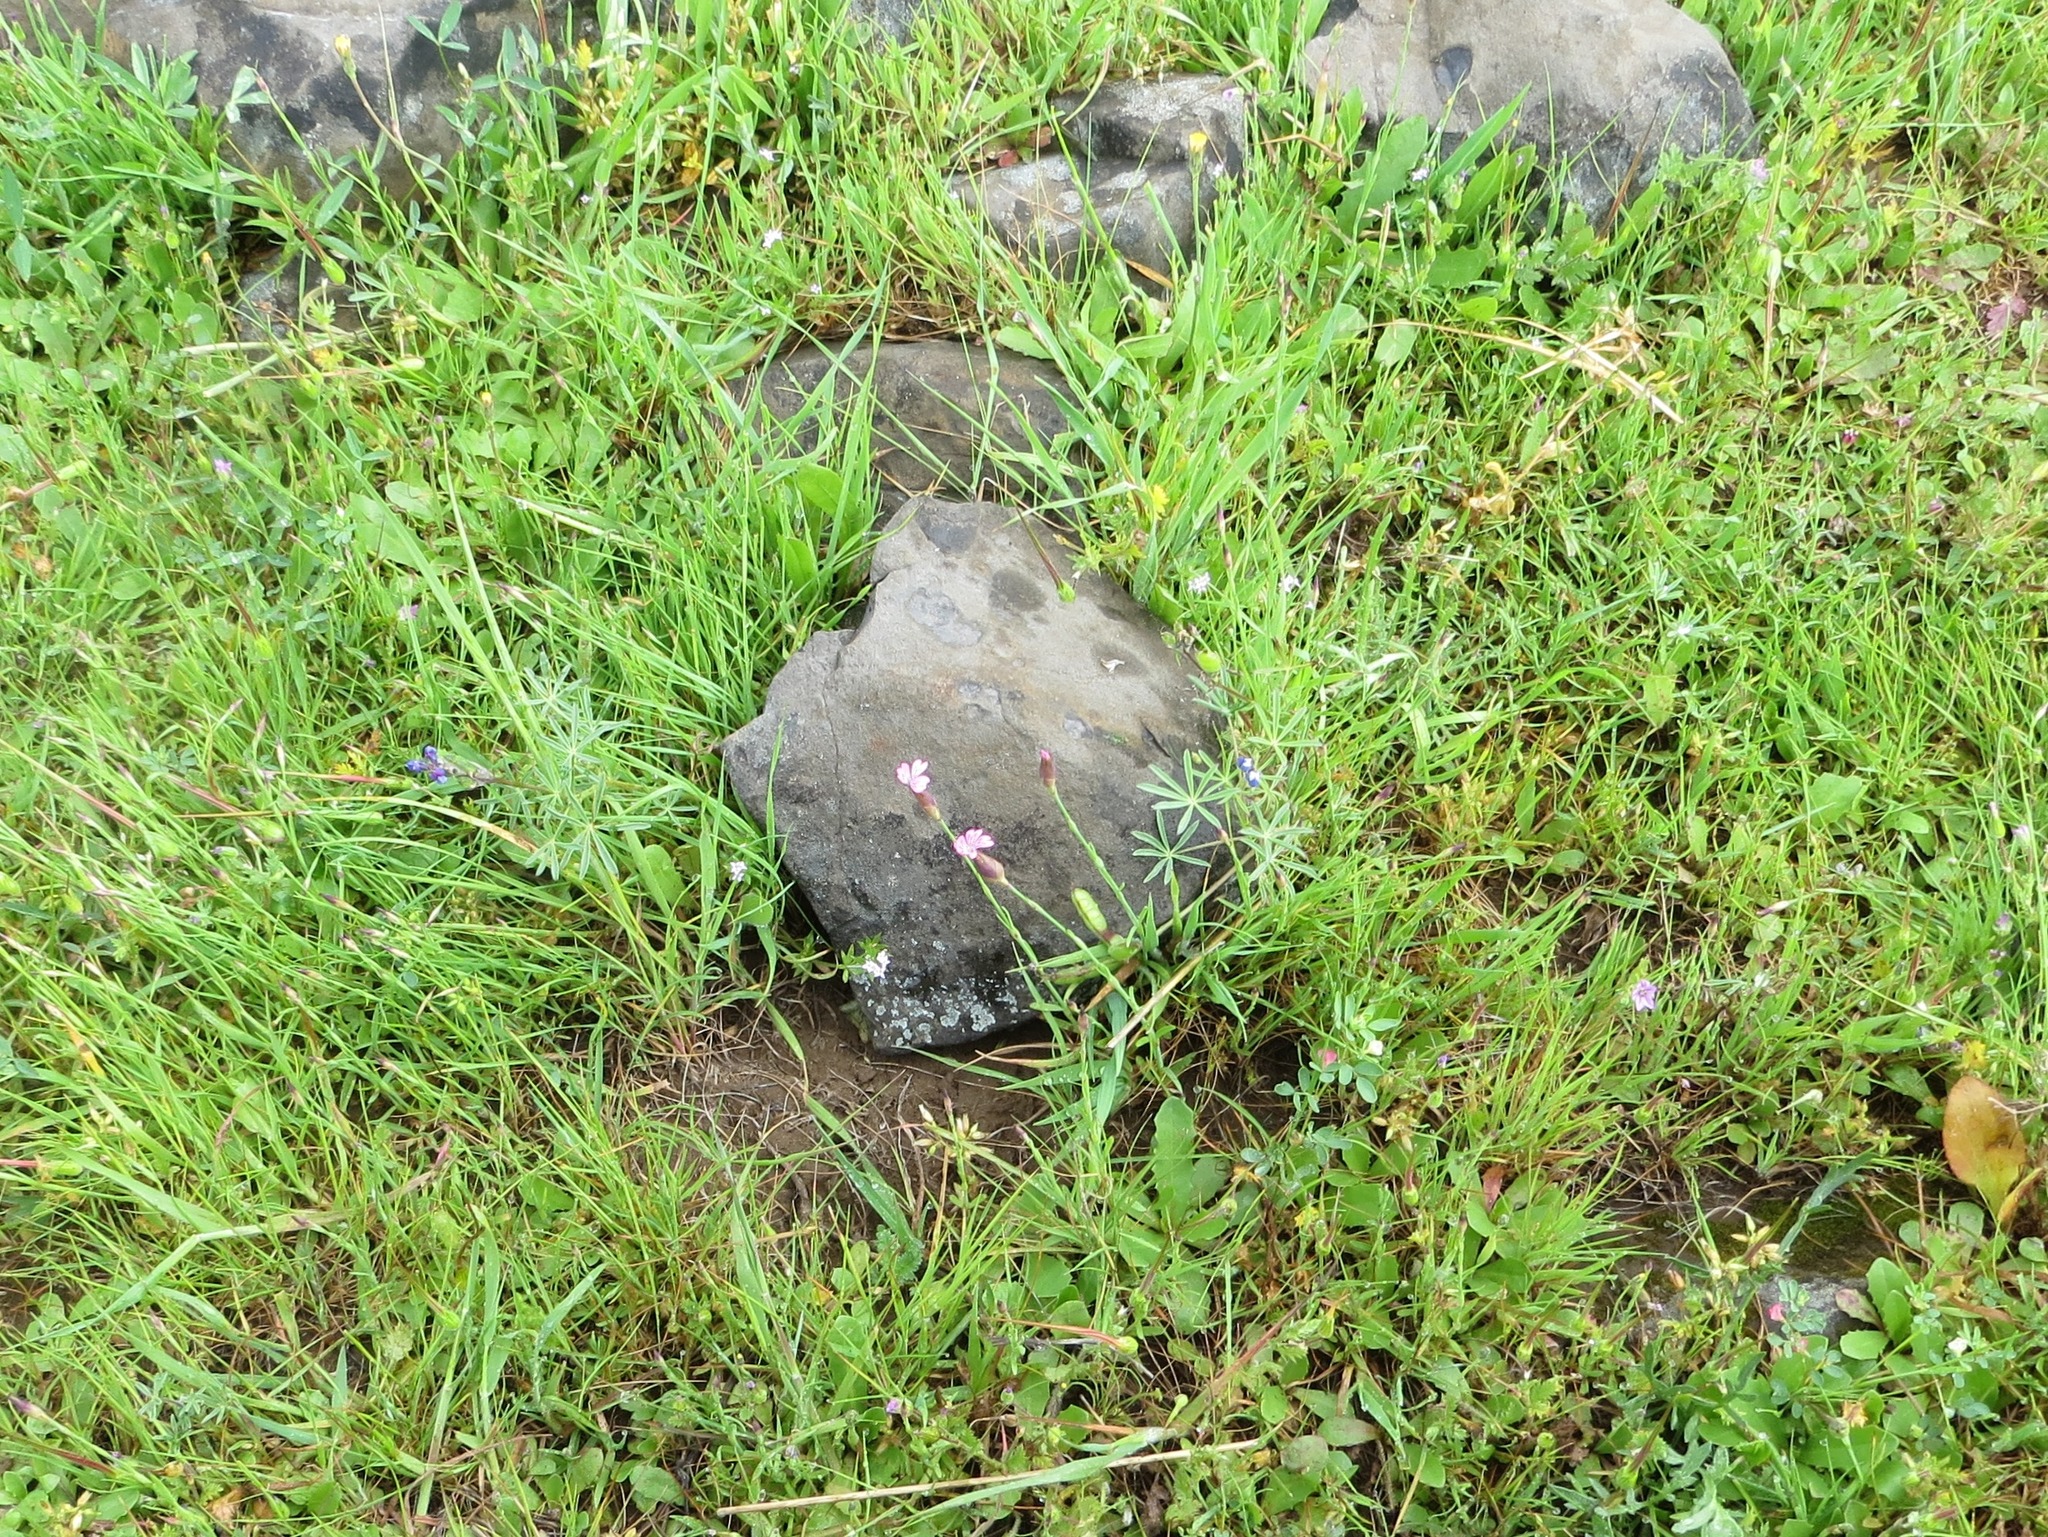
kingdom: Plantae
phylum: Tracheophyta
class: Magnoliopsida
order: Caryophyllales
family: Caryophyllaceae
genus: Petrorhagia
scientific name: Petrorhagia dubia
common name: Hairypink
